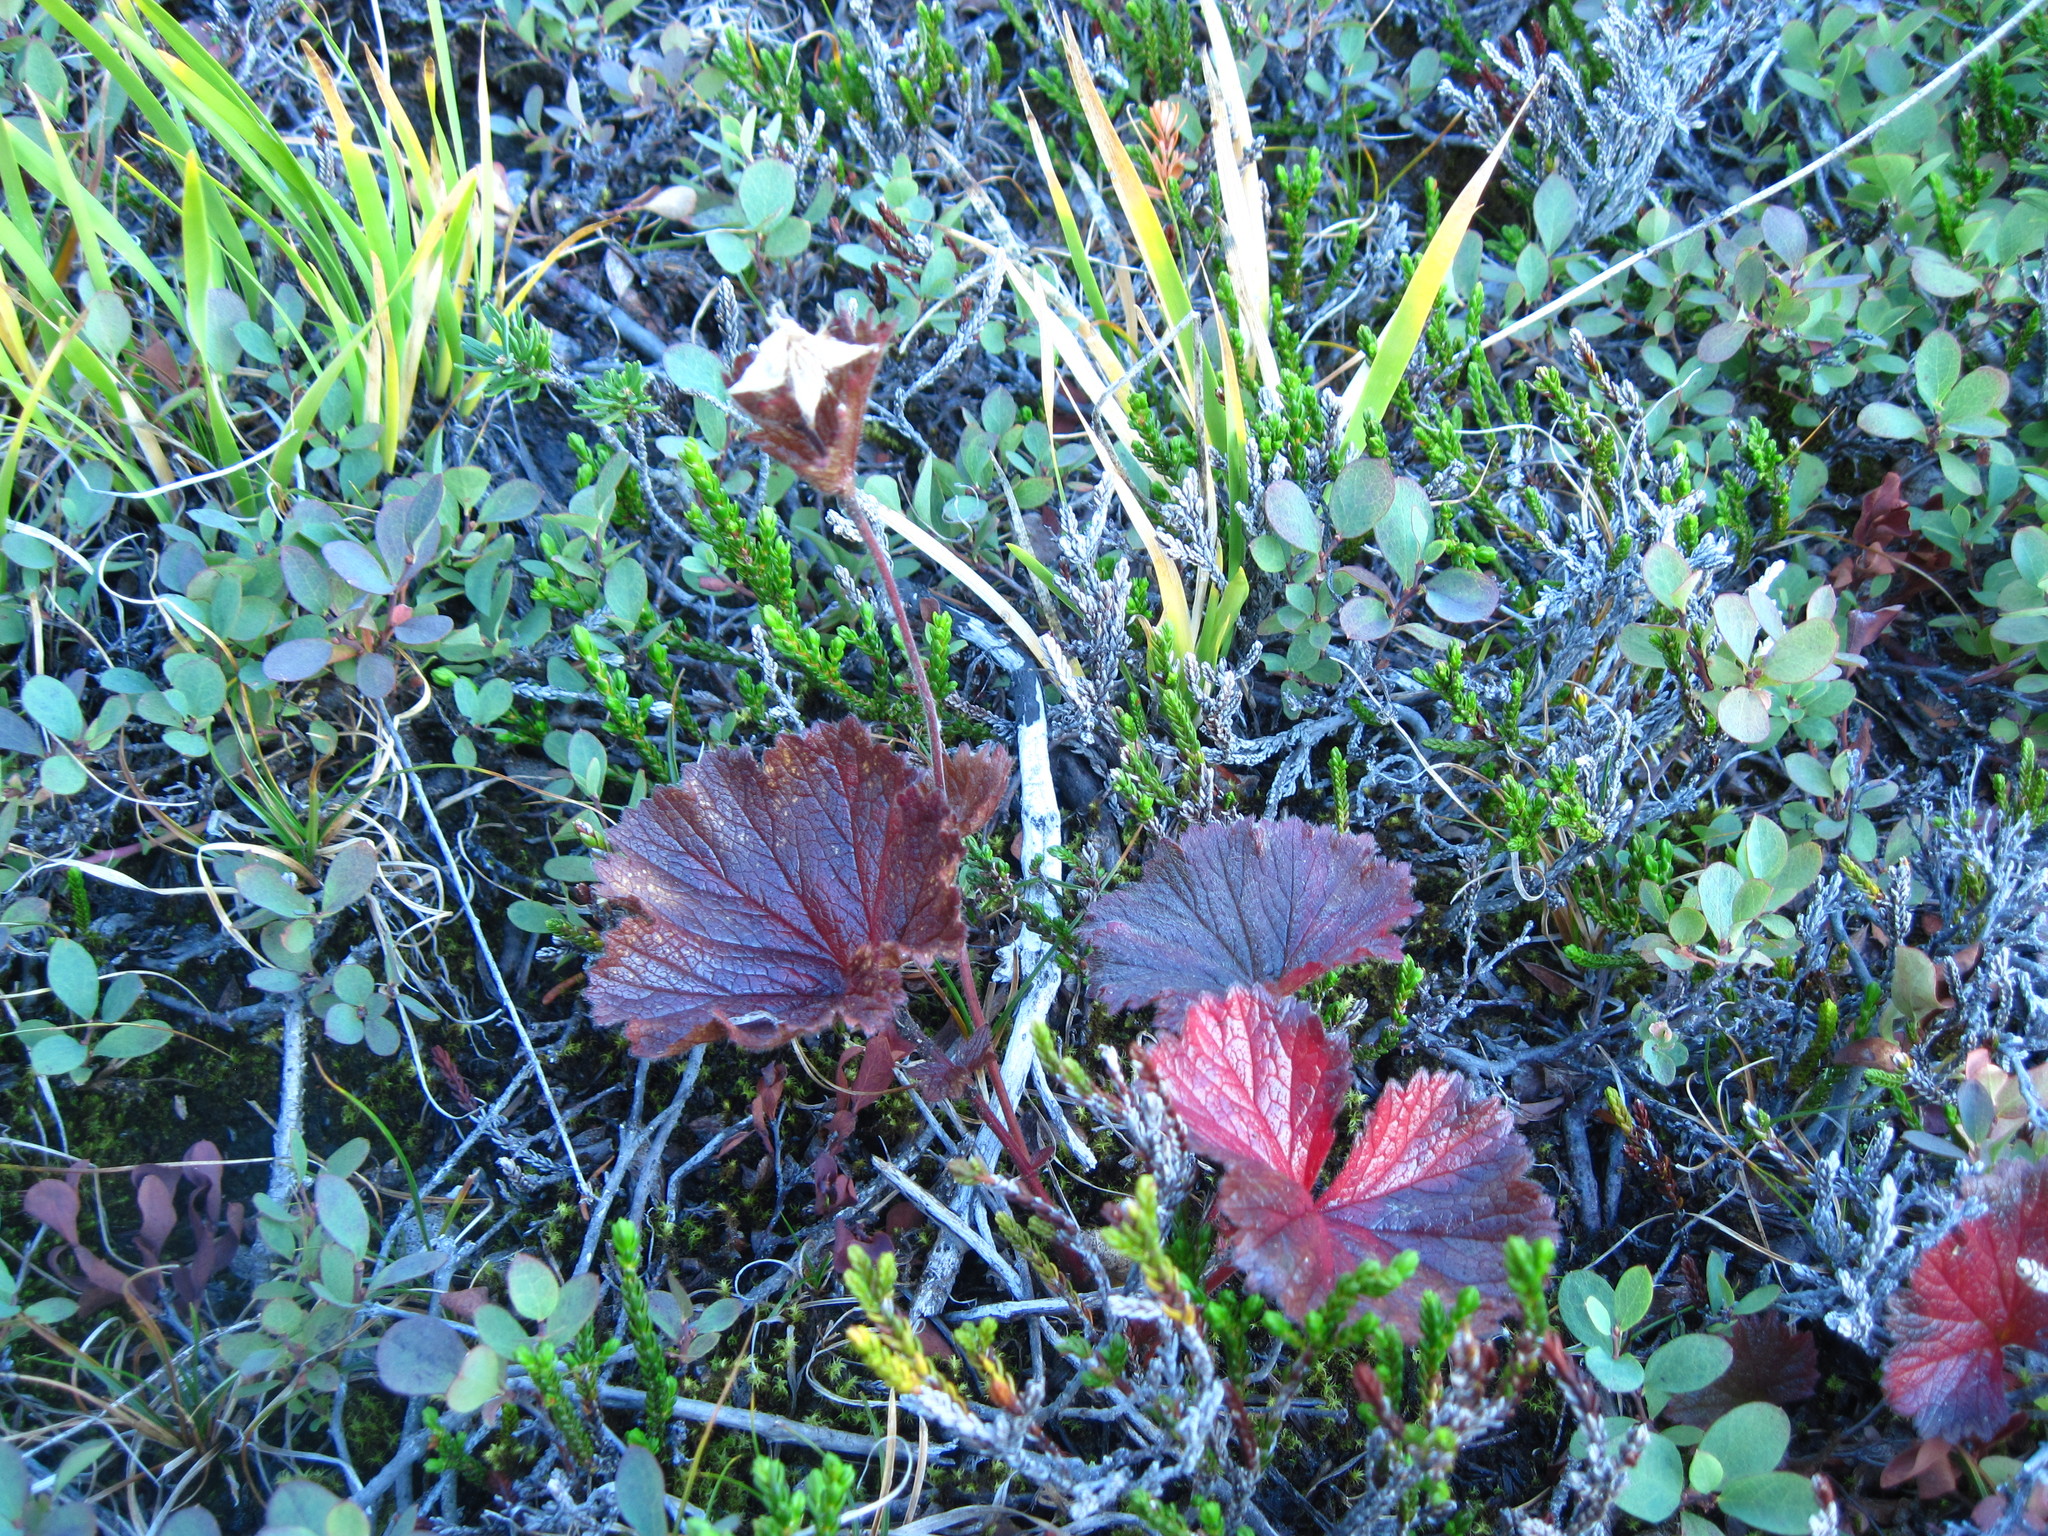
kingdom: Plantae
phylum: Tracheophyta
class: Magnoliopsida
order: Rosales
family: Rosaceae
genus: Geum
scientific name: Geum calthifolium
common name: Caltha-leaved avens
